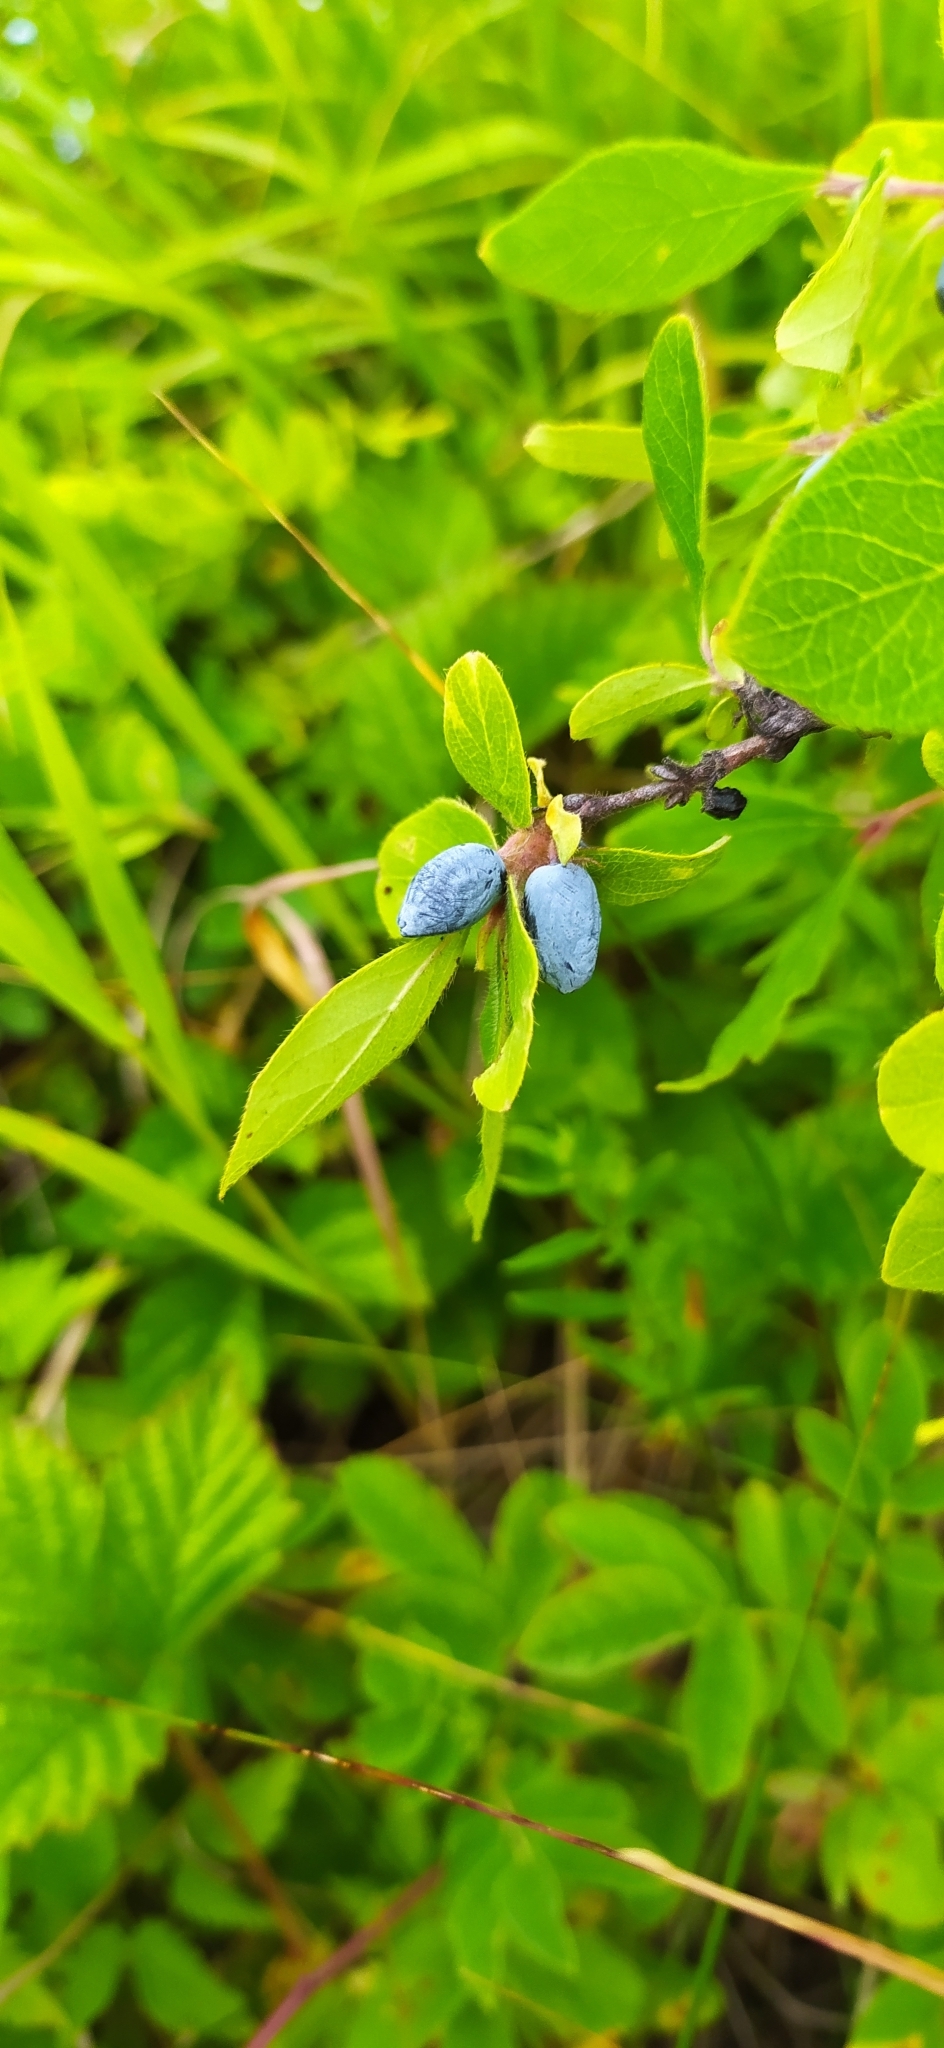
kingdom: Plantae
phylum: Tracheophyta
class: Magnoliopsida
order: Dipsacales
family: Caprifoliaceae
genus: Lonicera
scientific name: Lonicera caerulea
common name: Blue honeysuckle
